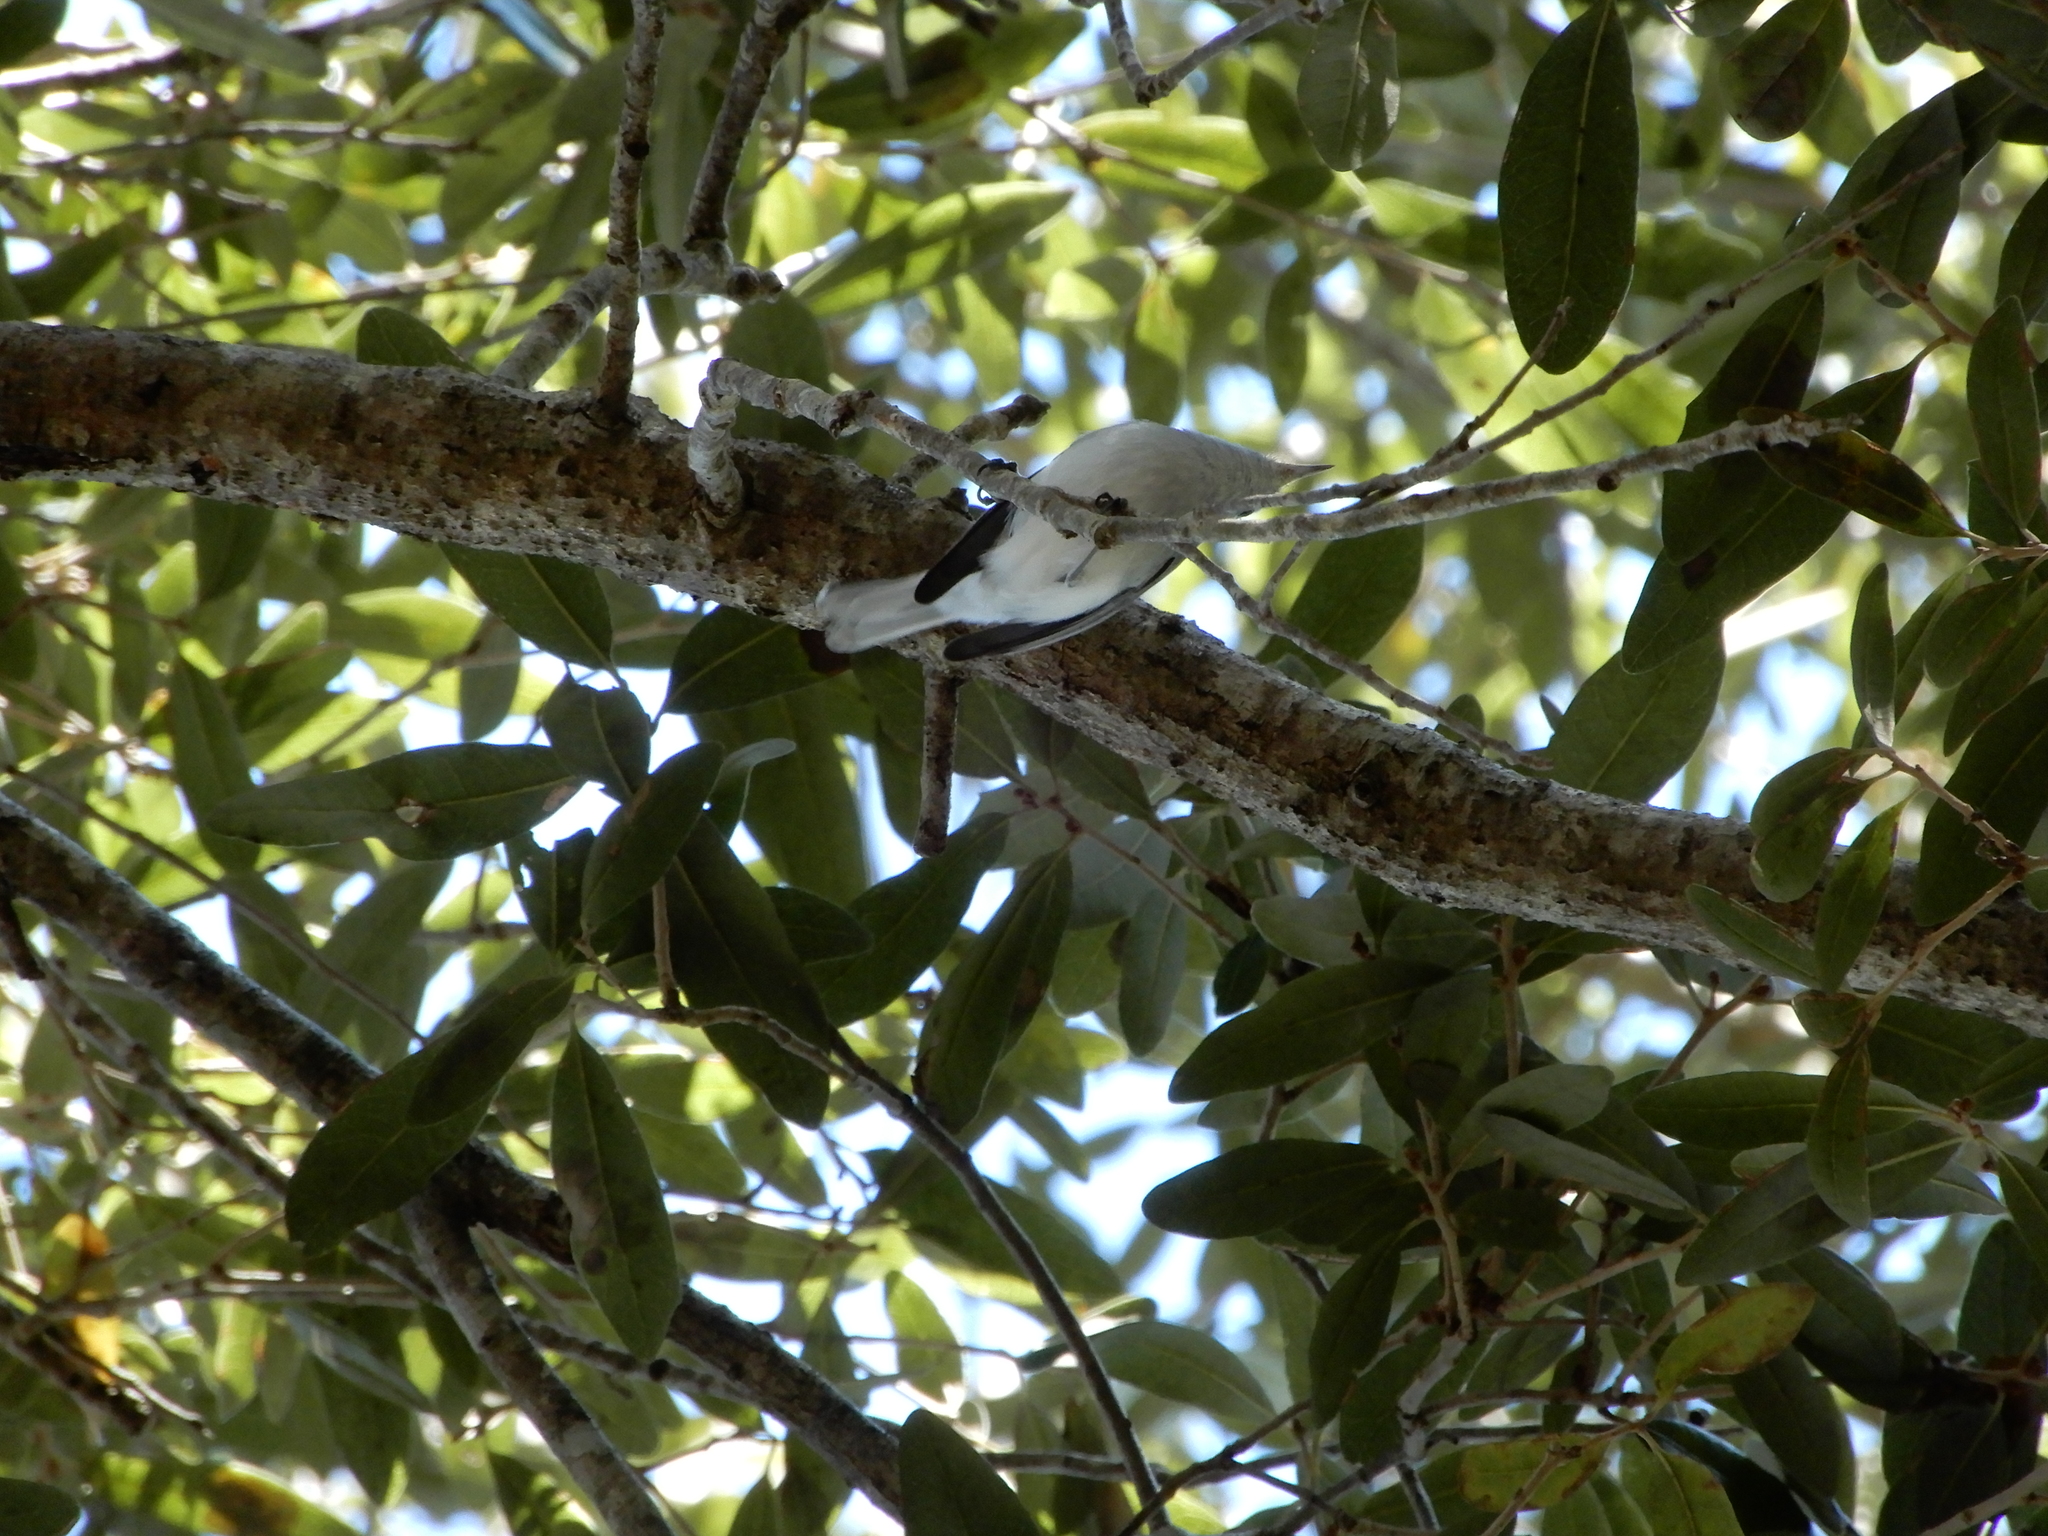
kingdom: Animalia
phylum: Chordata
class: Aves
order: Passeriformes
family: Polioptilidae
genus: Polioptila
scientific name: Polioptila caerulea
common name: Blue-gray gnatcatcher
